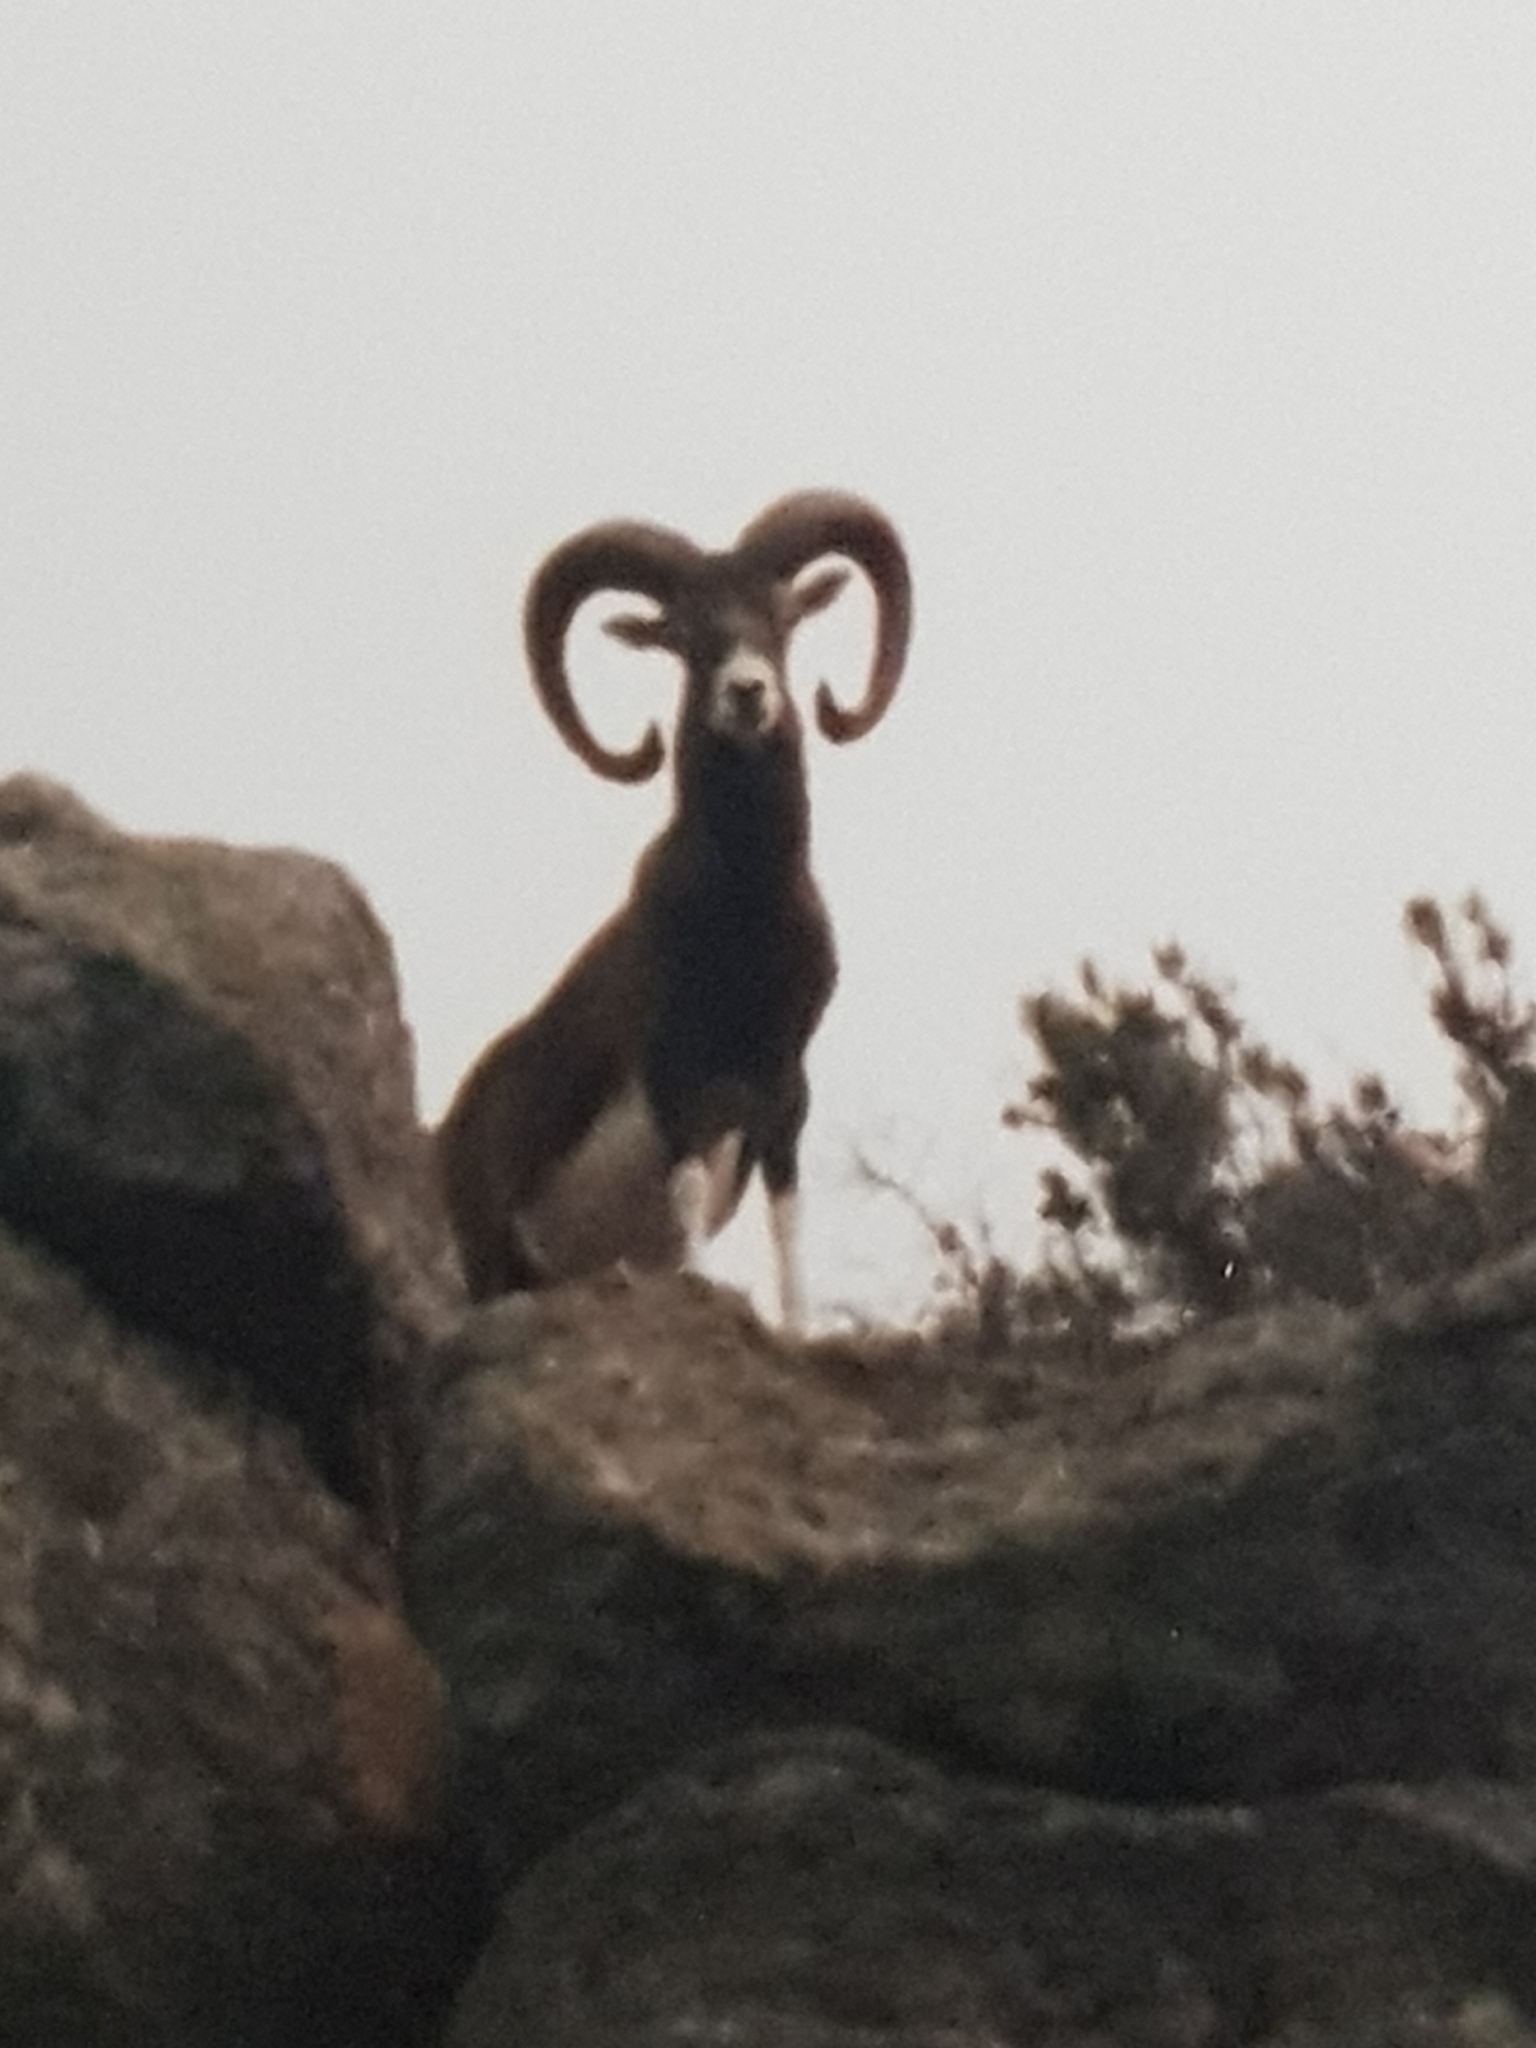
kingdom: Animalia
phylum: Chordata
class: Mammalia
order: Artiodactyla
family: Bovidae
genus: Ovis
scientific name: Ovis aries
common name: Domestic sheep
